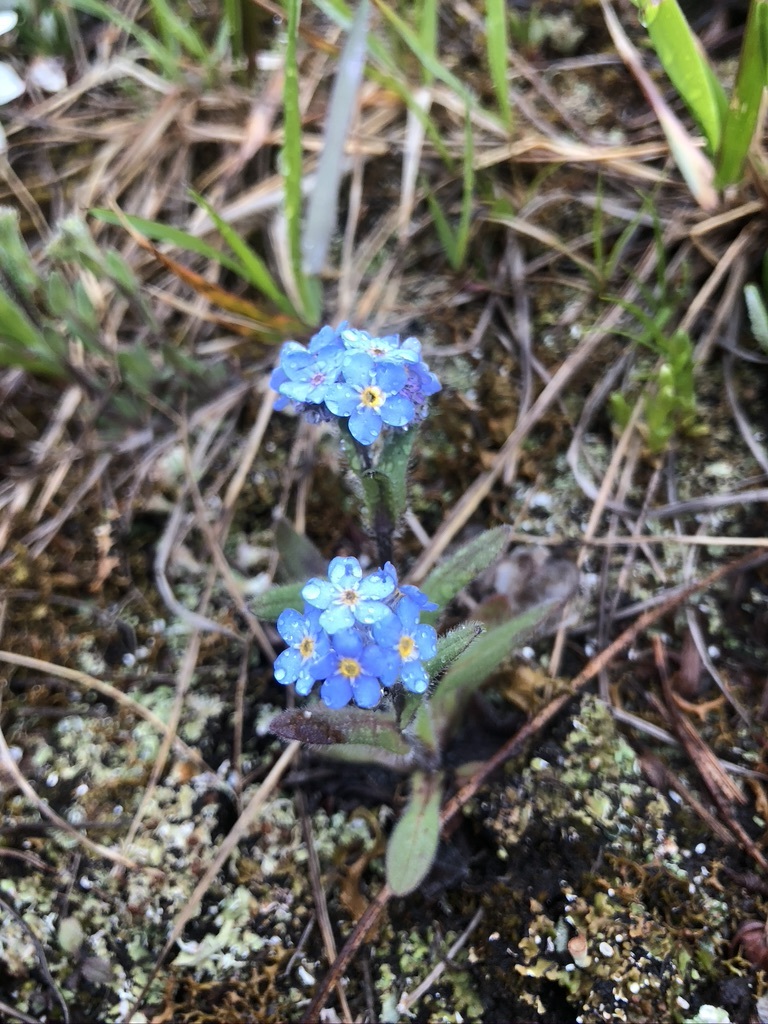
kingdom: Plantae
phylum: Tracheophyta
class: Magnoliopsida
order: Boraginales
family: Boraginaceae
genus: Myosotis
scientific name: Myosotis asiatica
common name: Asian forget-me-not
